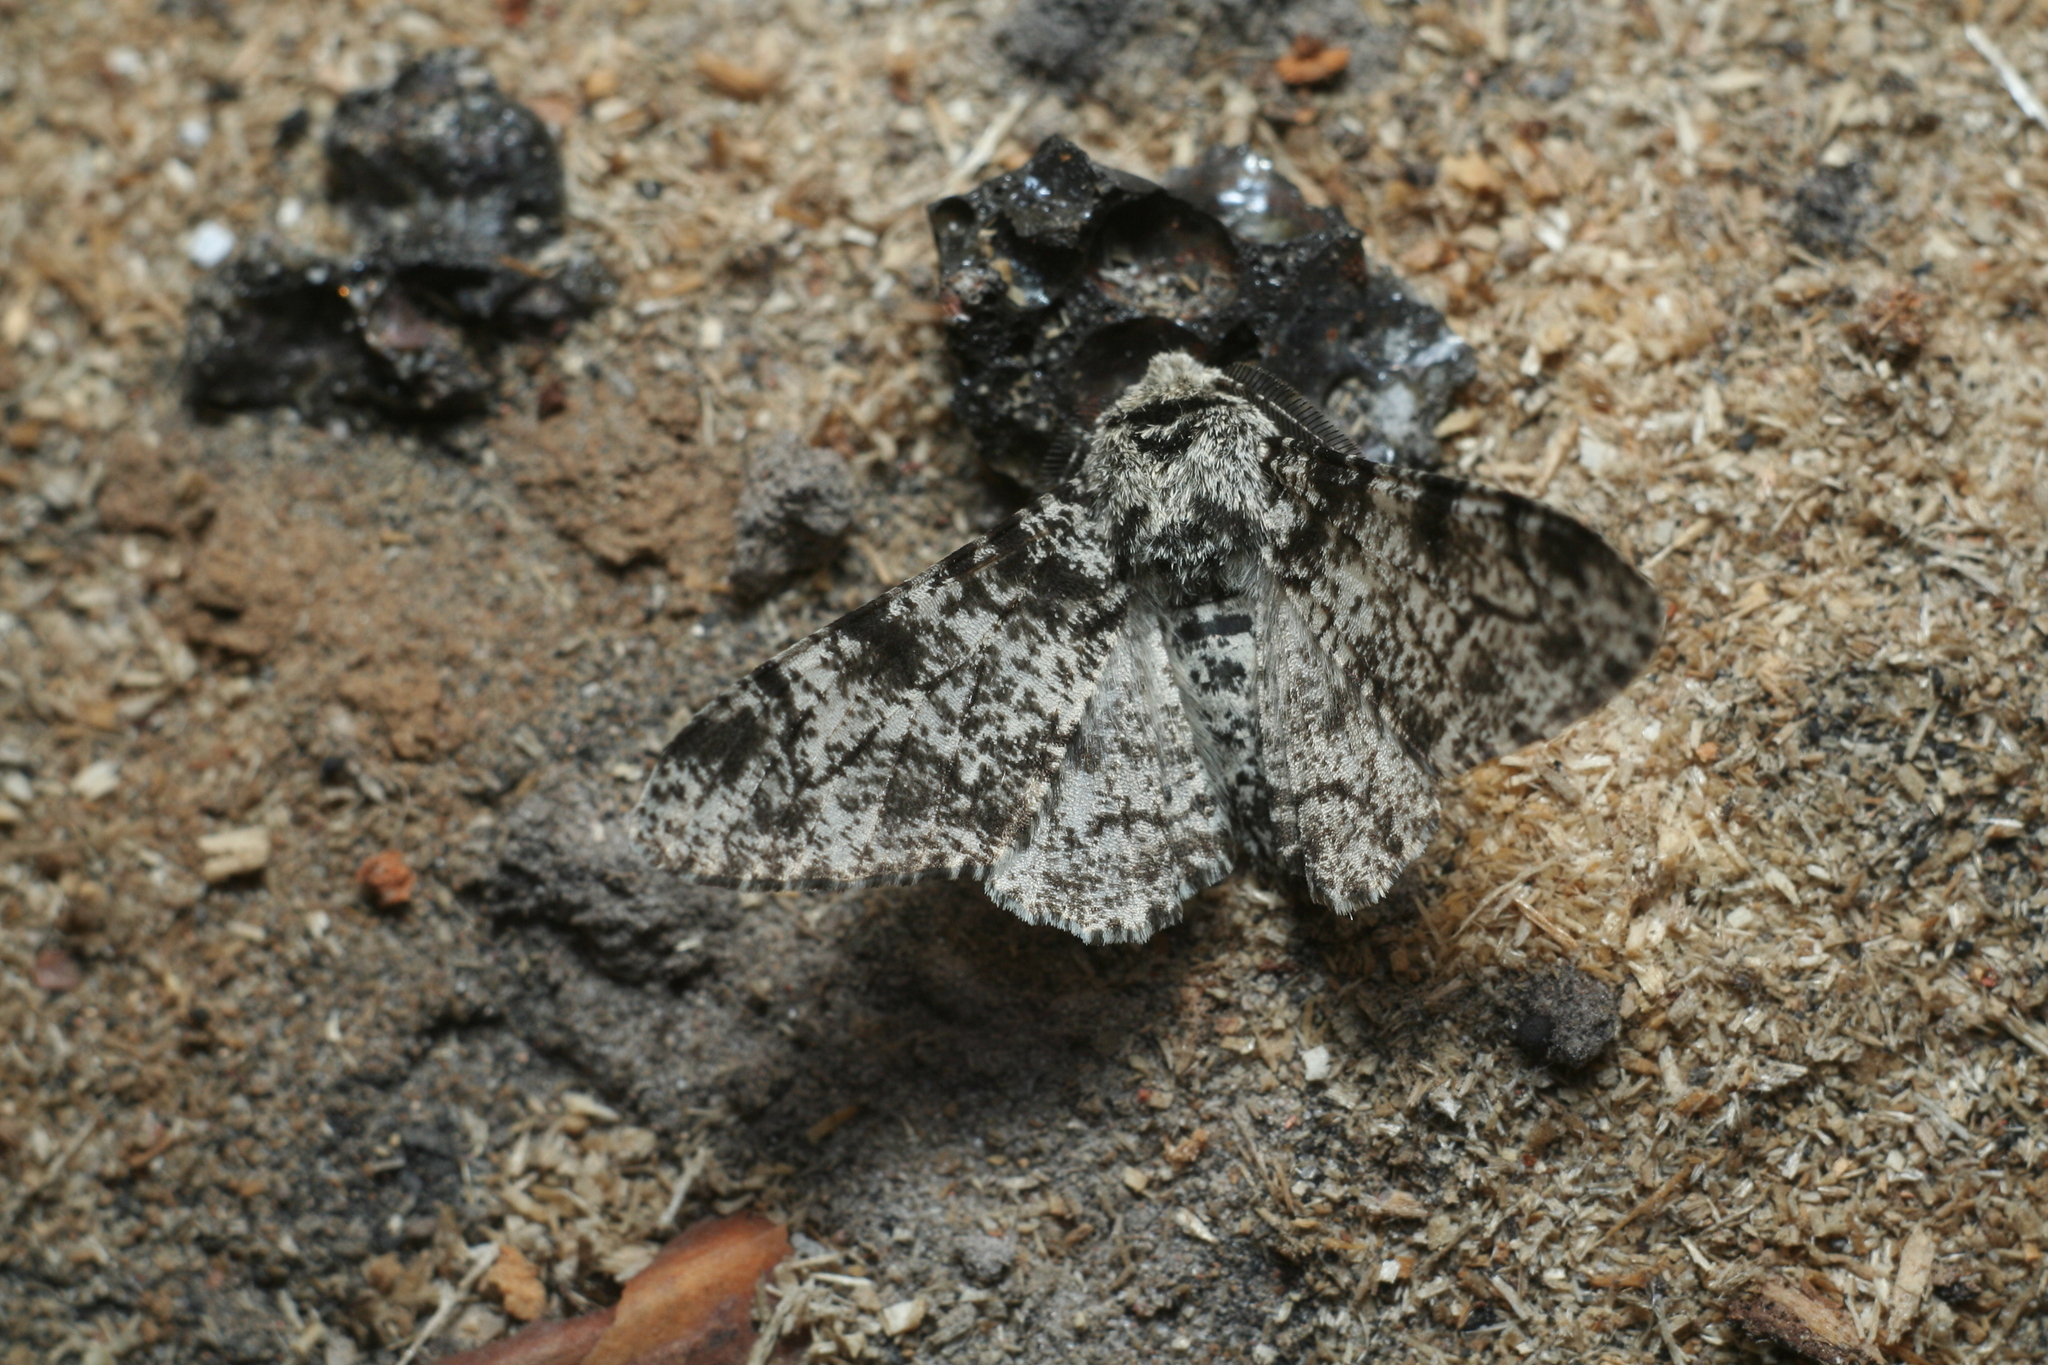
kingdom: Animalia
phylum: Arthropoda
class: Insecta
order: Lepidoptera
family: Geometridae
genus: Biston
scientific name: Biston betularia
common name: Peppered moth
